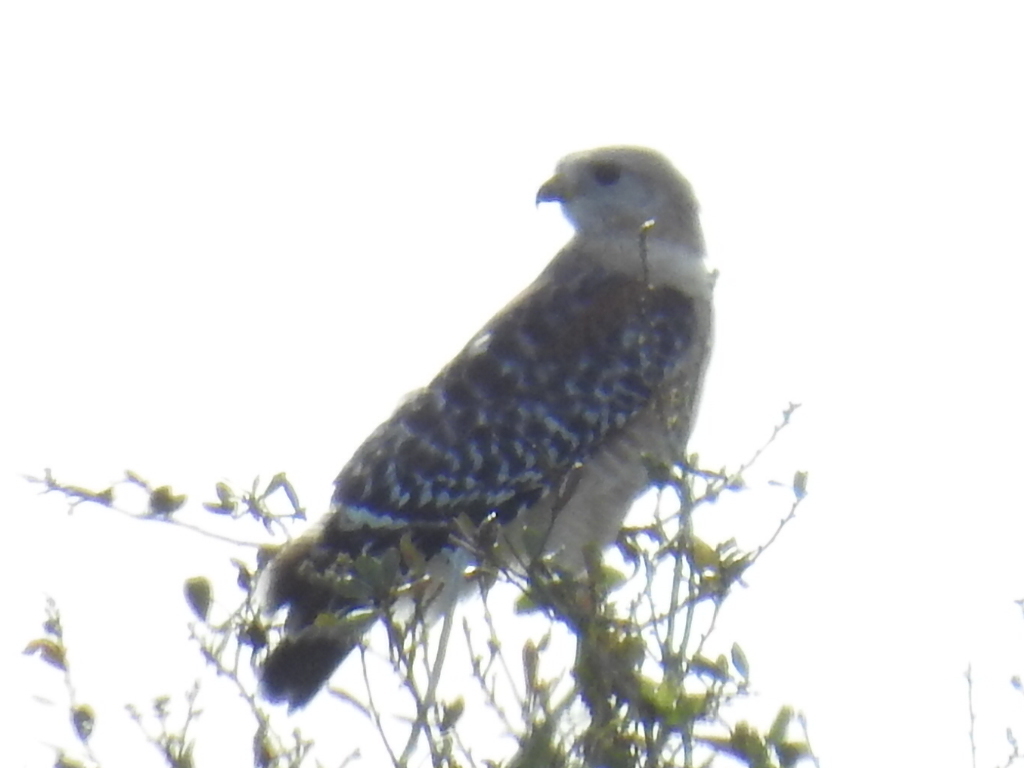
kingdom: Animalia
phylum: Chordata
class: Aves
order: Accipitriformes
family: Accipitridae
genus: Buteo
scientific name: Buteo lineatus
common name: Red-shouldered hawk
